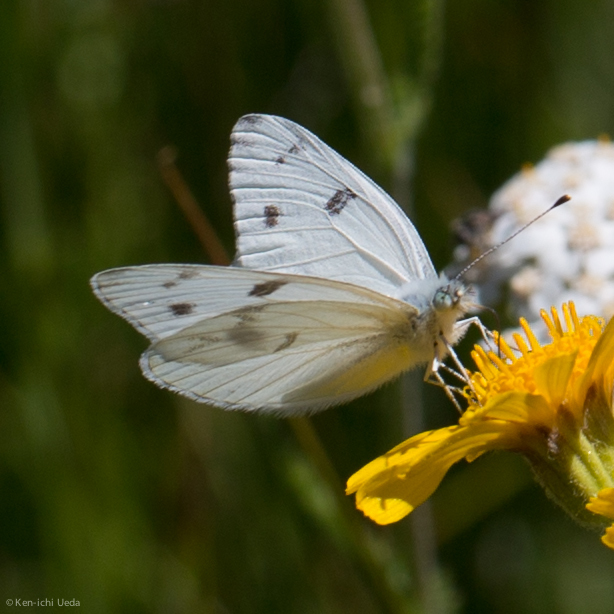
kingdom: Animalia
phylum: Arthropoda
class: Insecta
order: Lepidoptera
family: Pieridae
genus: Pontia
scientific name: Pontia protodice
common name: Checkered white
